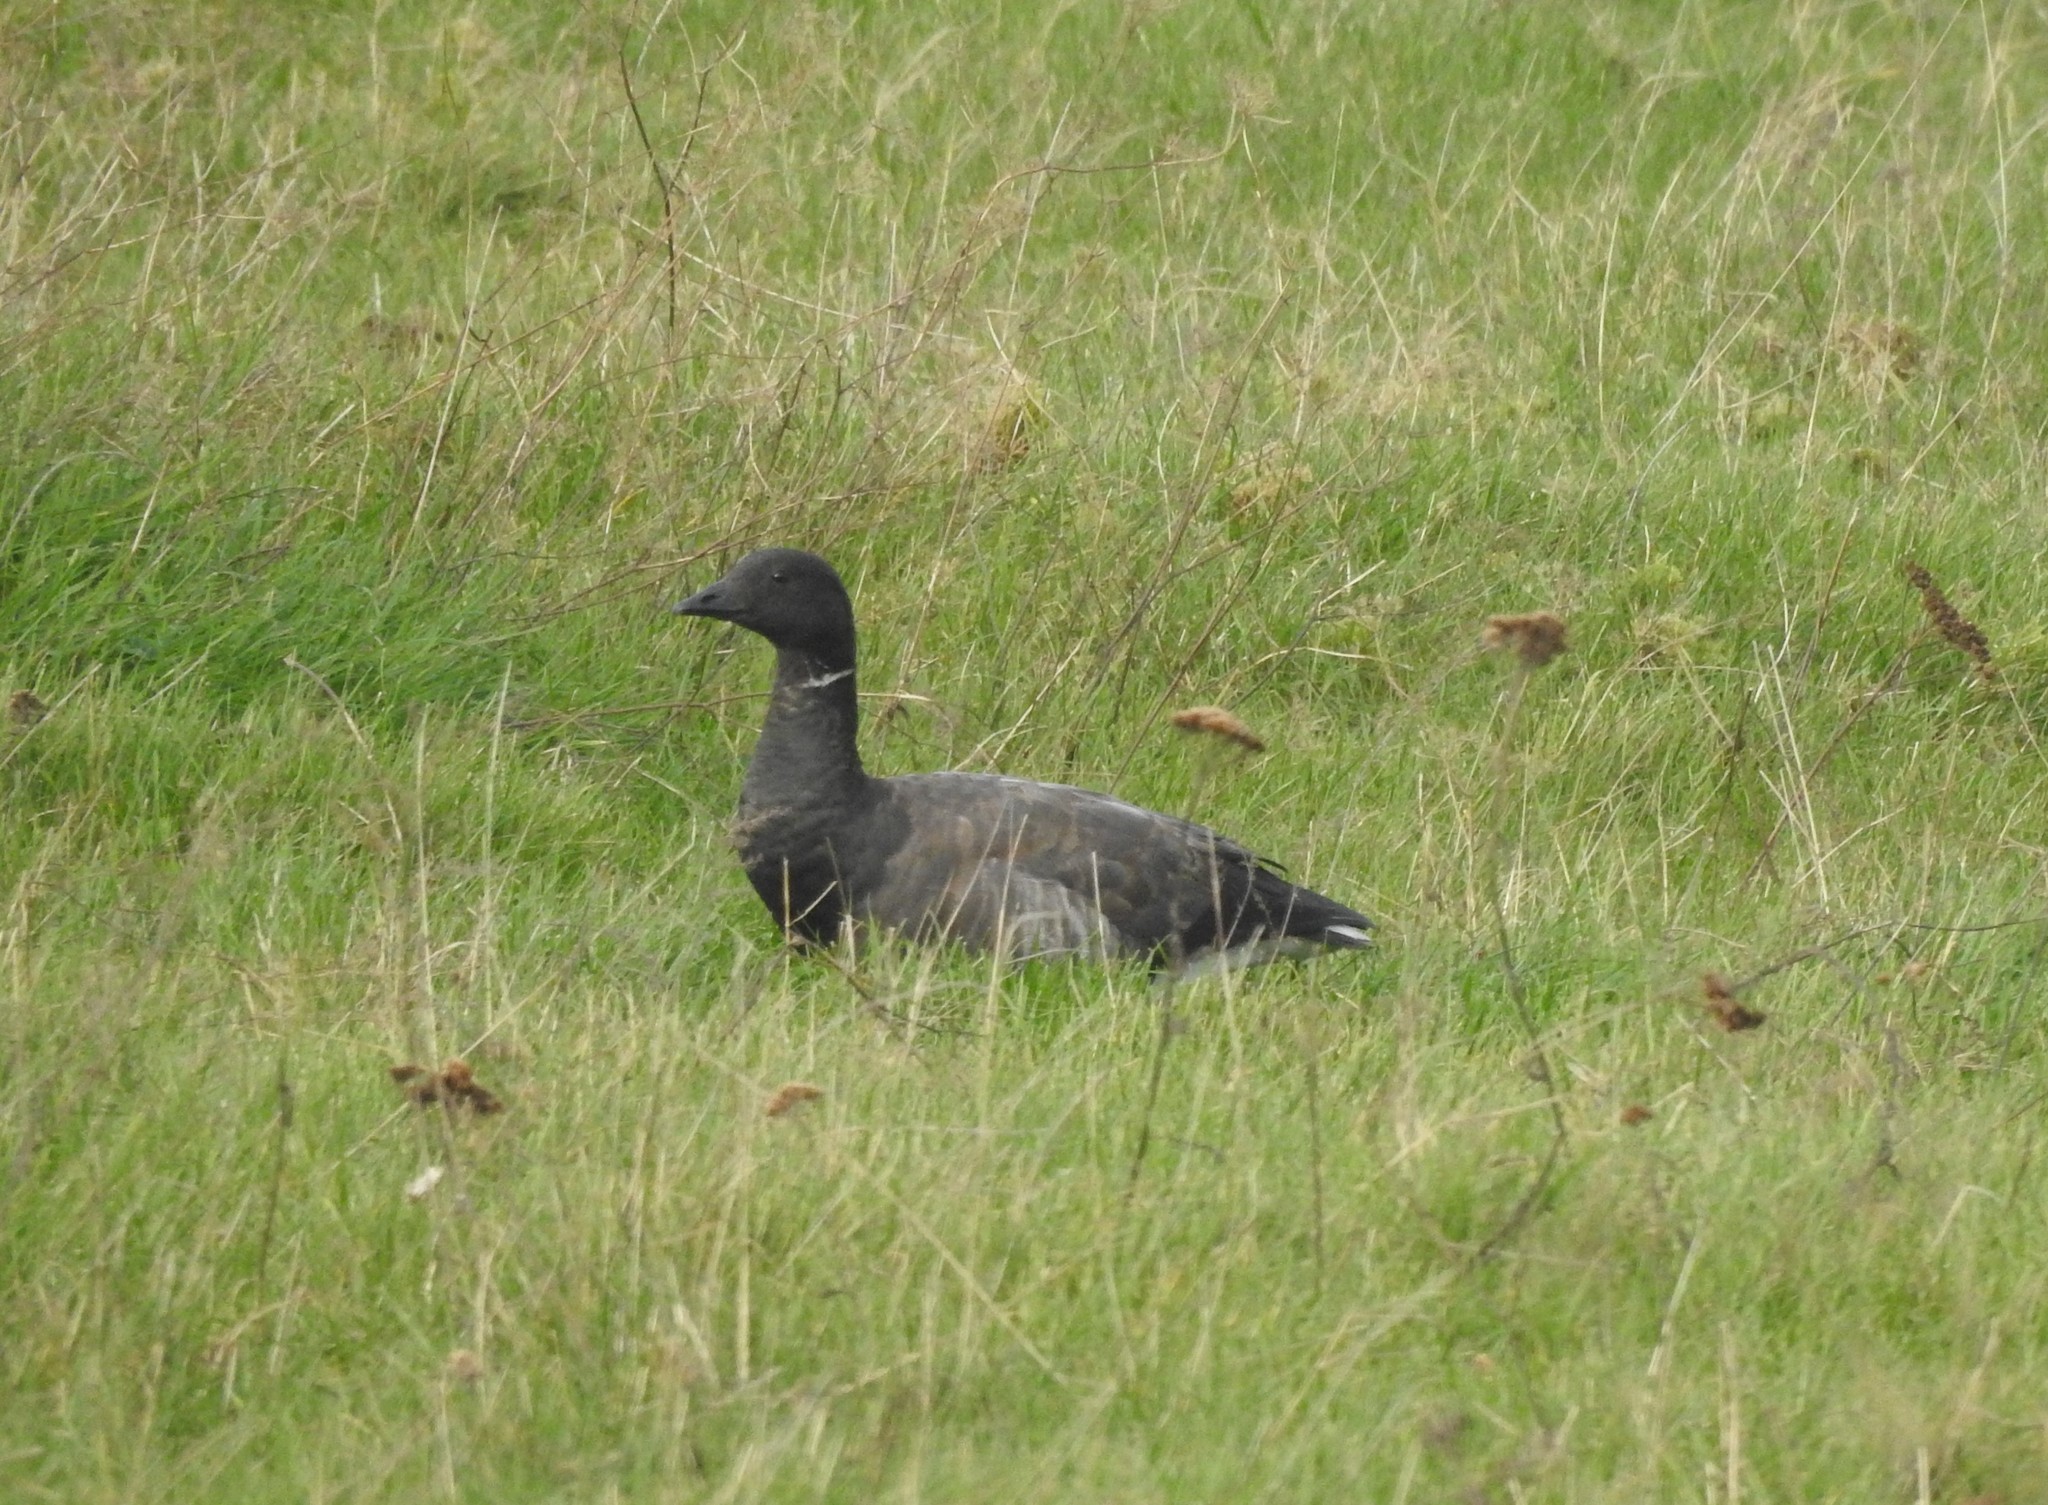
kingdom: Animalia
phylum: Chordata
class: Aves
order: Anseriformes
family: Anatidae
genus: Branta
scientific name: Branta bernicla
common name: Brant goose
